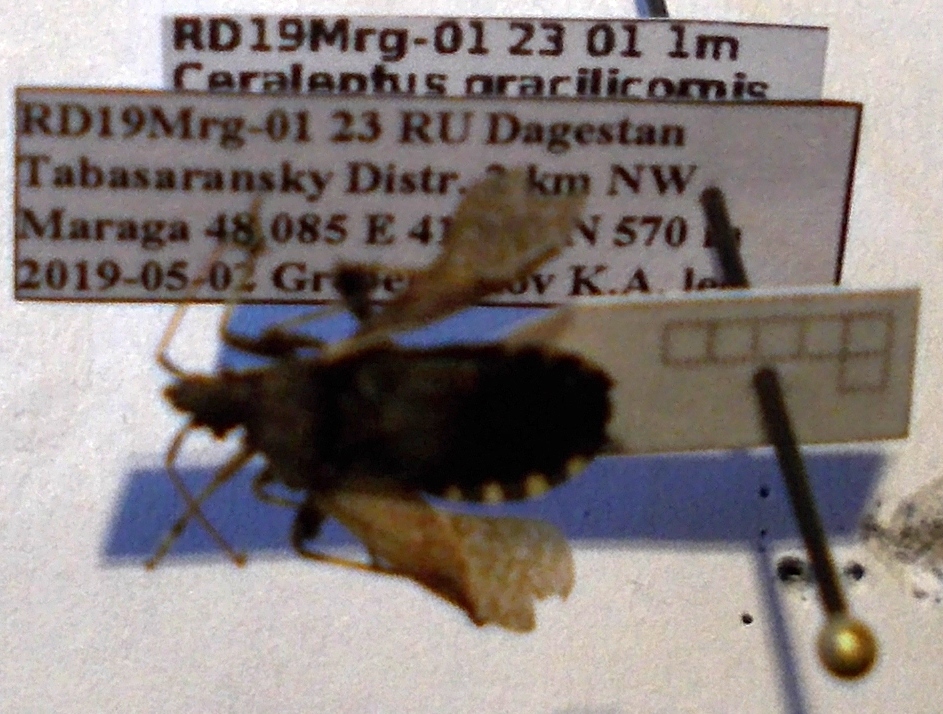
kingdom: Animalia
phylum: Arthropoda
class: Insecta
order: Hemiptera
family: Coreidae
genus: Ceraleptus
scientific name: Ceraleptus gracilicornis
